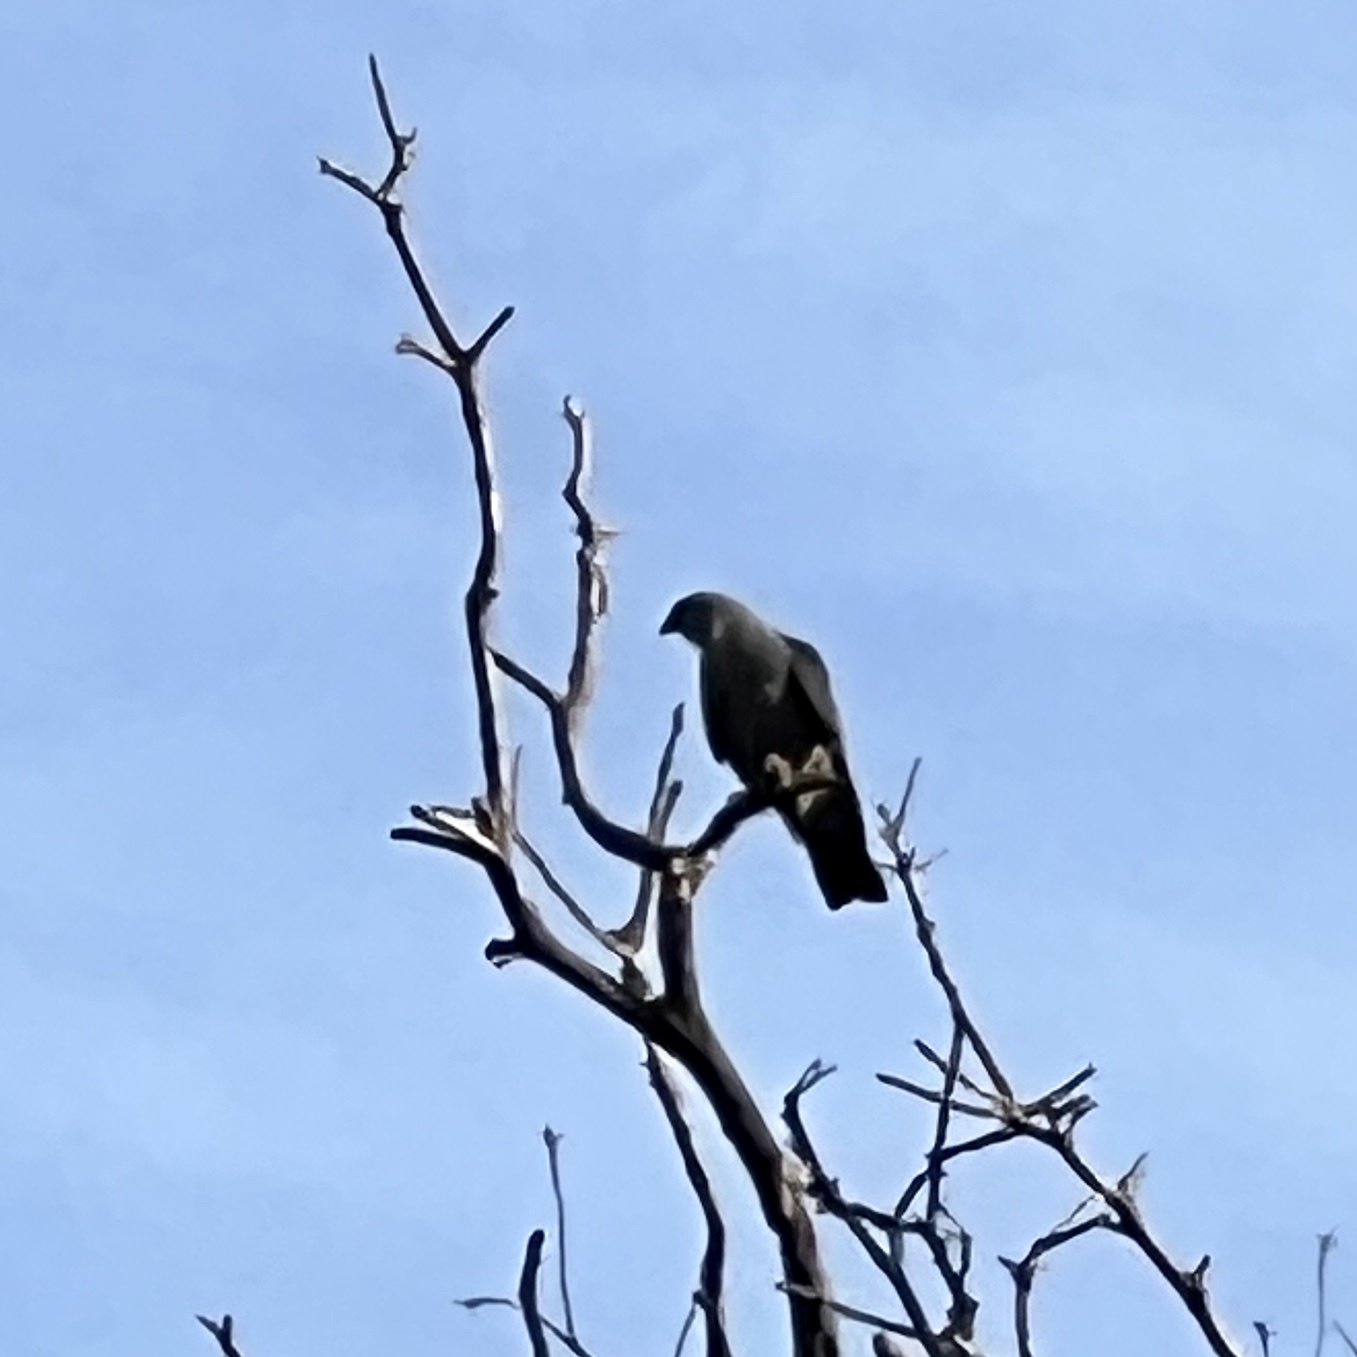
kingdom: Animalia
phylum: Chordata
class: Aves
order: Accipitriformes
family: Accipitridae
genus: Ictinia
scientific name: Ictinia mississippiensis
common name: Mississippi kite
